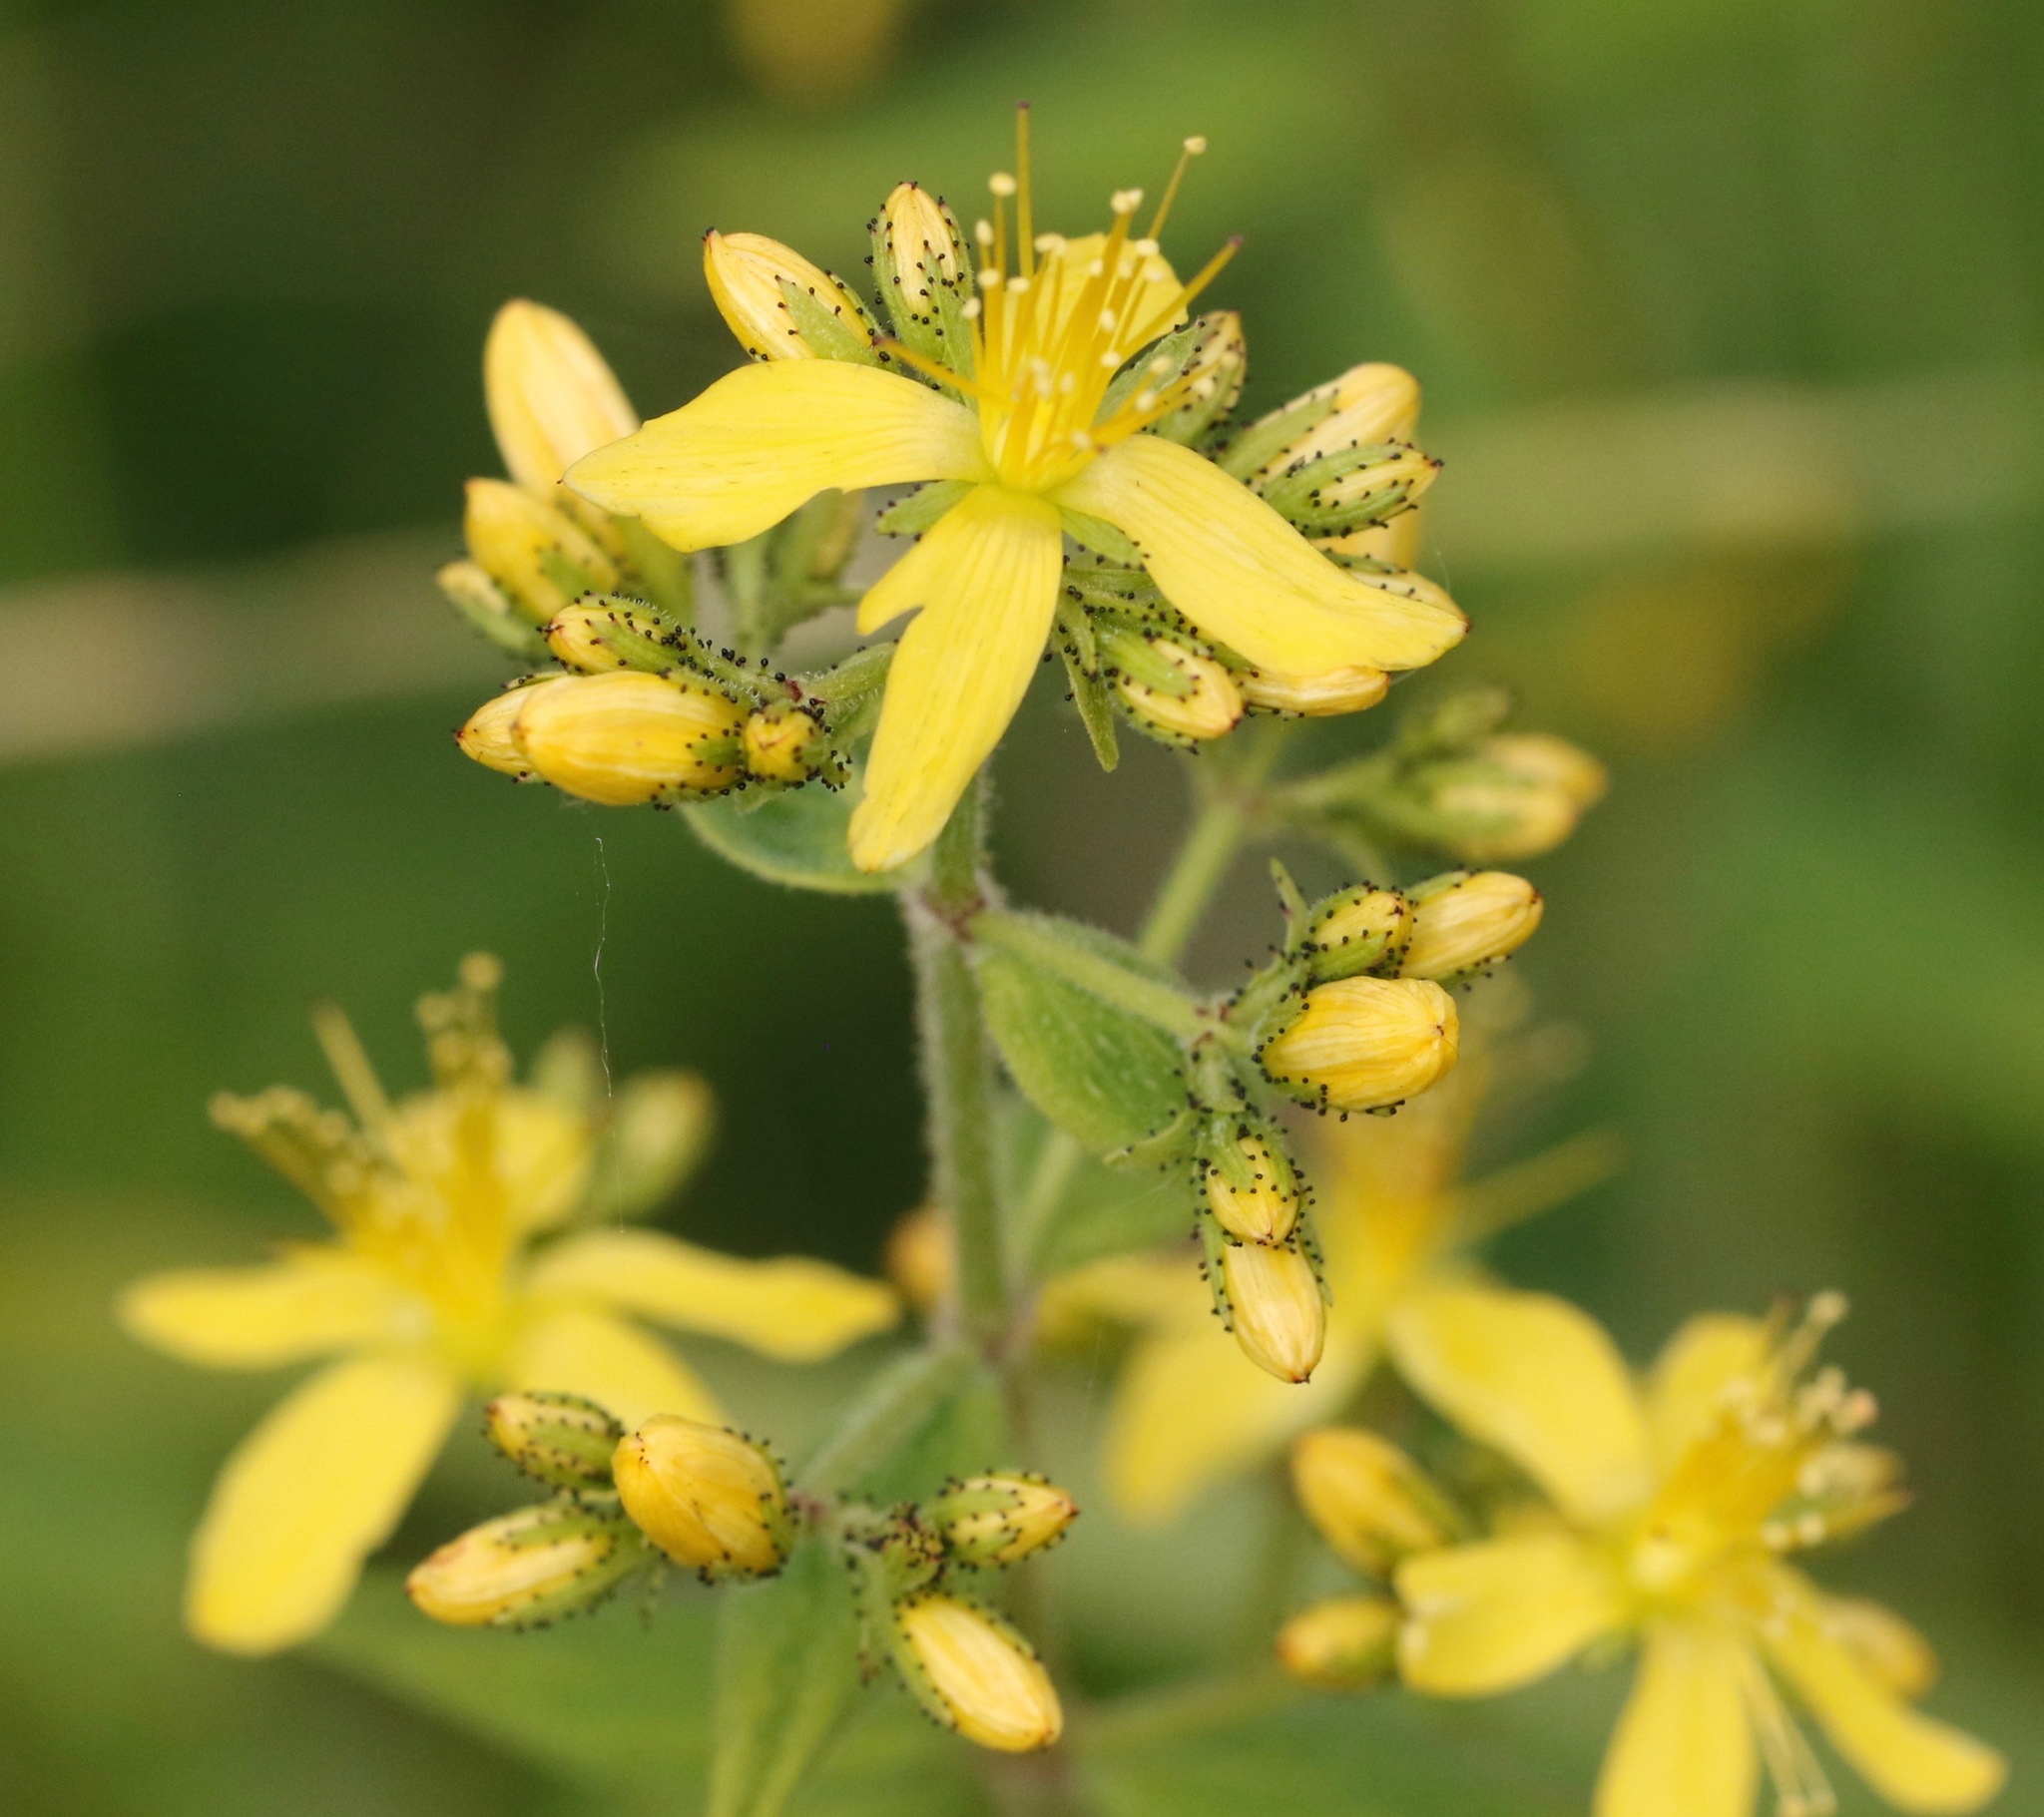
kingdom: Plantae
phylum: Tracheophyta
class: Magnoliopsida
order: Malpighiales
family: Hypericaceae
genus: Hypericum
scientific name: Hypericum hirsutum
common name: Hairy st. john's-wort
